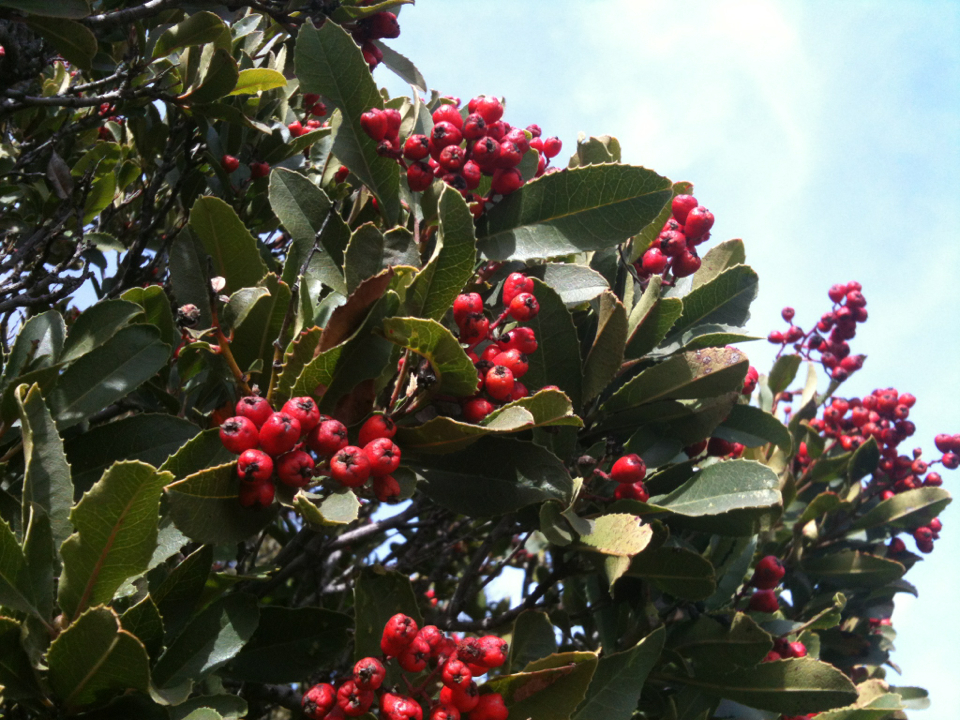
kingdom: Plantae
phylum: Tracheophyta
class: Magnoliopsida
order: Rosales
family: Rosaceae
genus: Heteromeles
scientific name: Heteromeles arbutifolia
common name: California-holly
